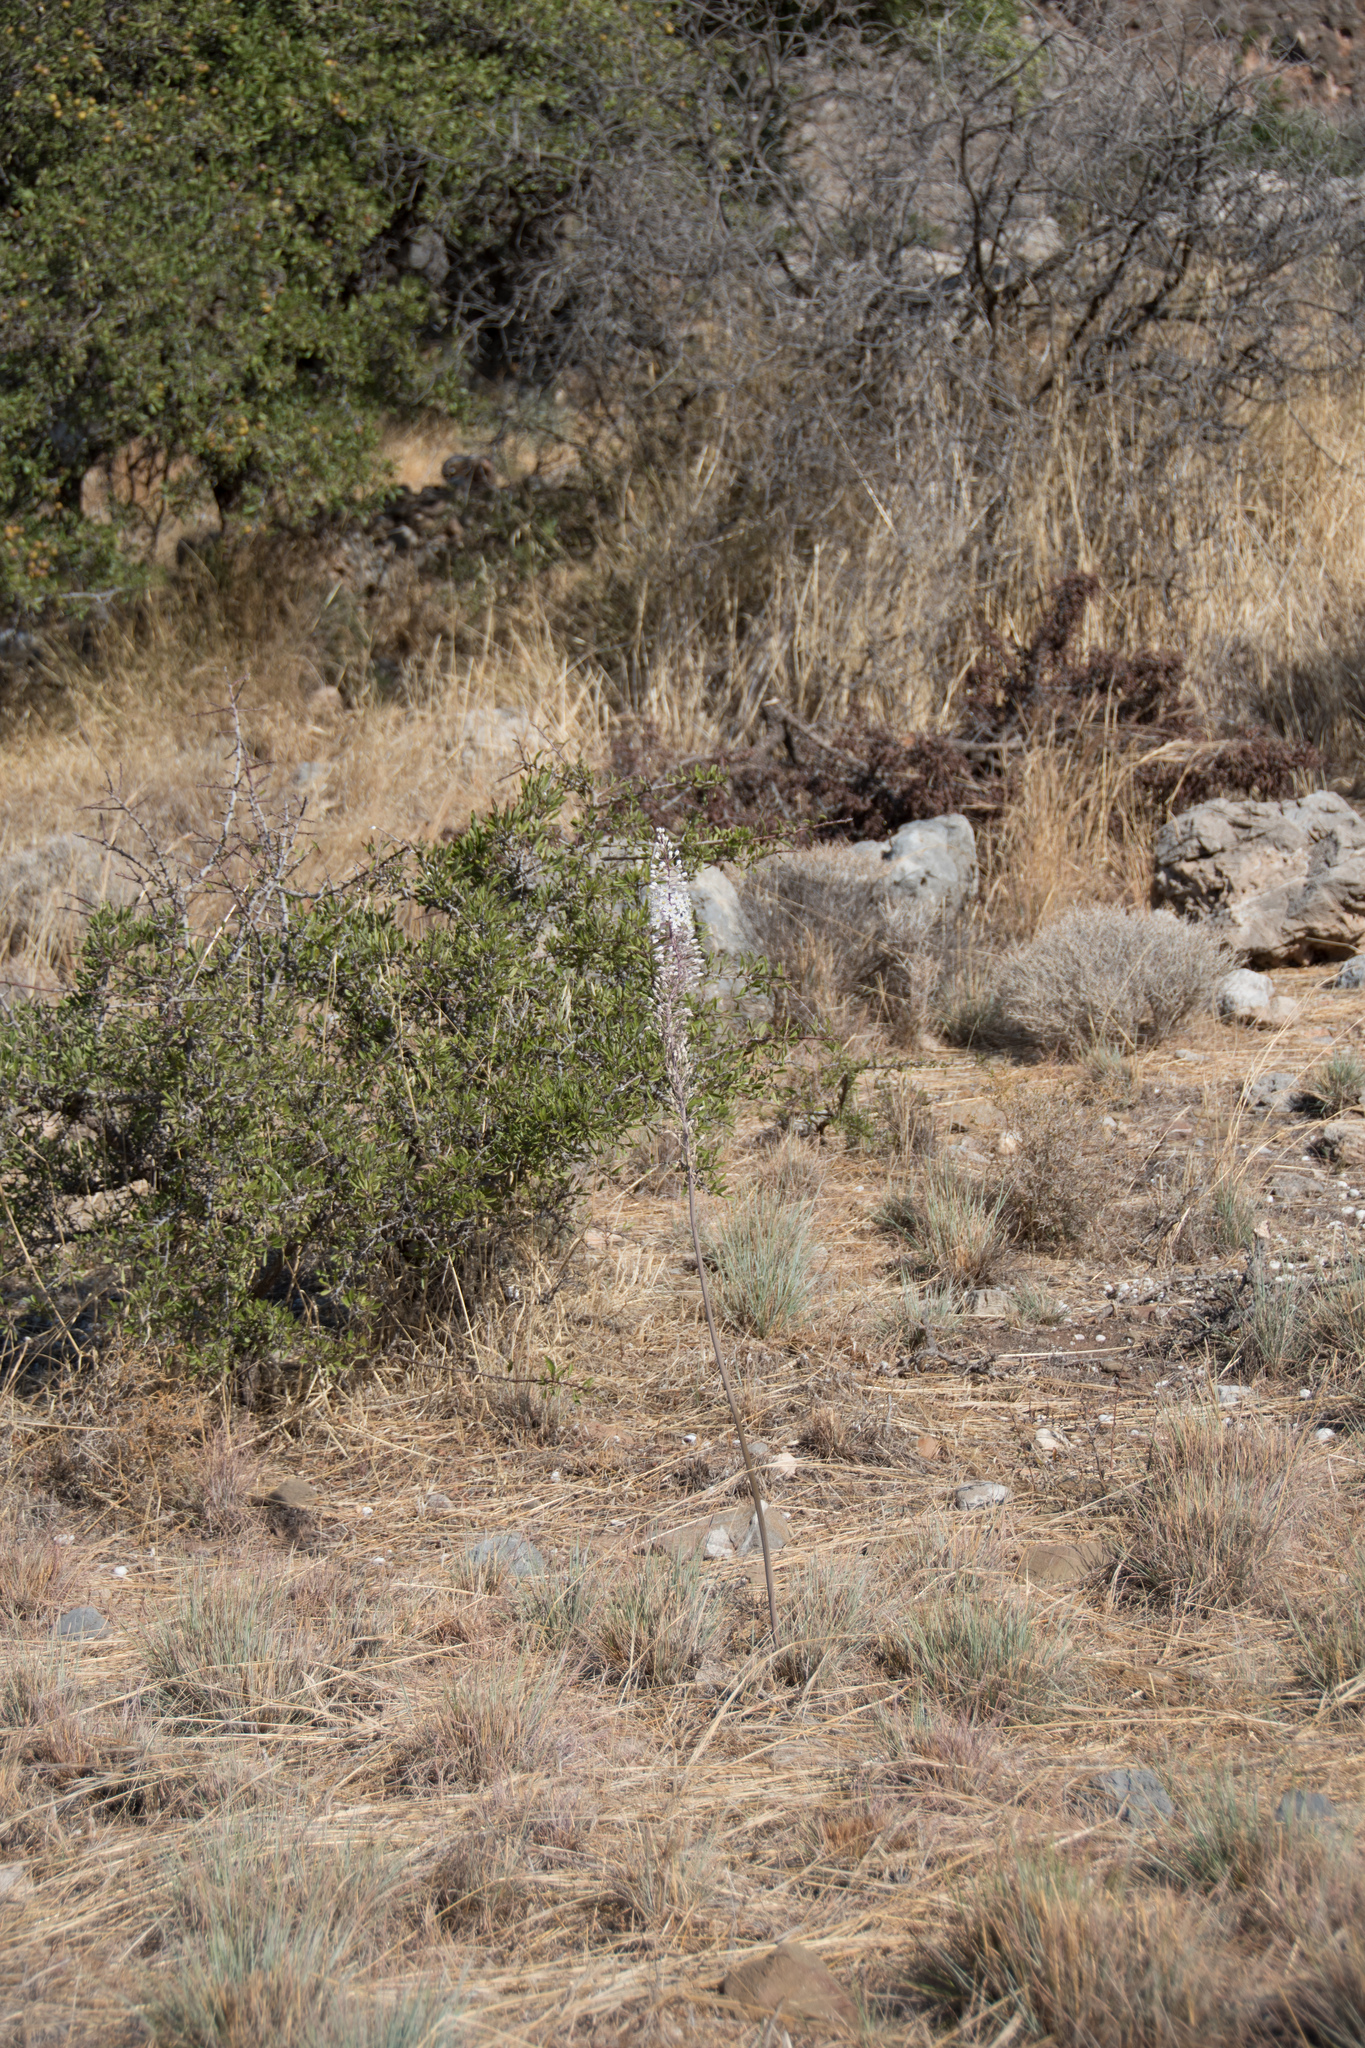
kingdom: Plantae
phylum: Tracheophyta
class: Liliopsida
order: Asparagales
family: Asparagaceae
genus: Drimia
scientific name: Drimia numidica
